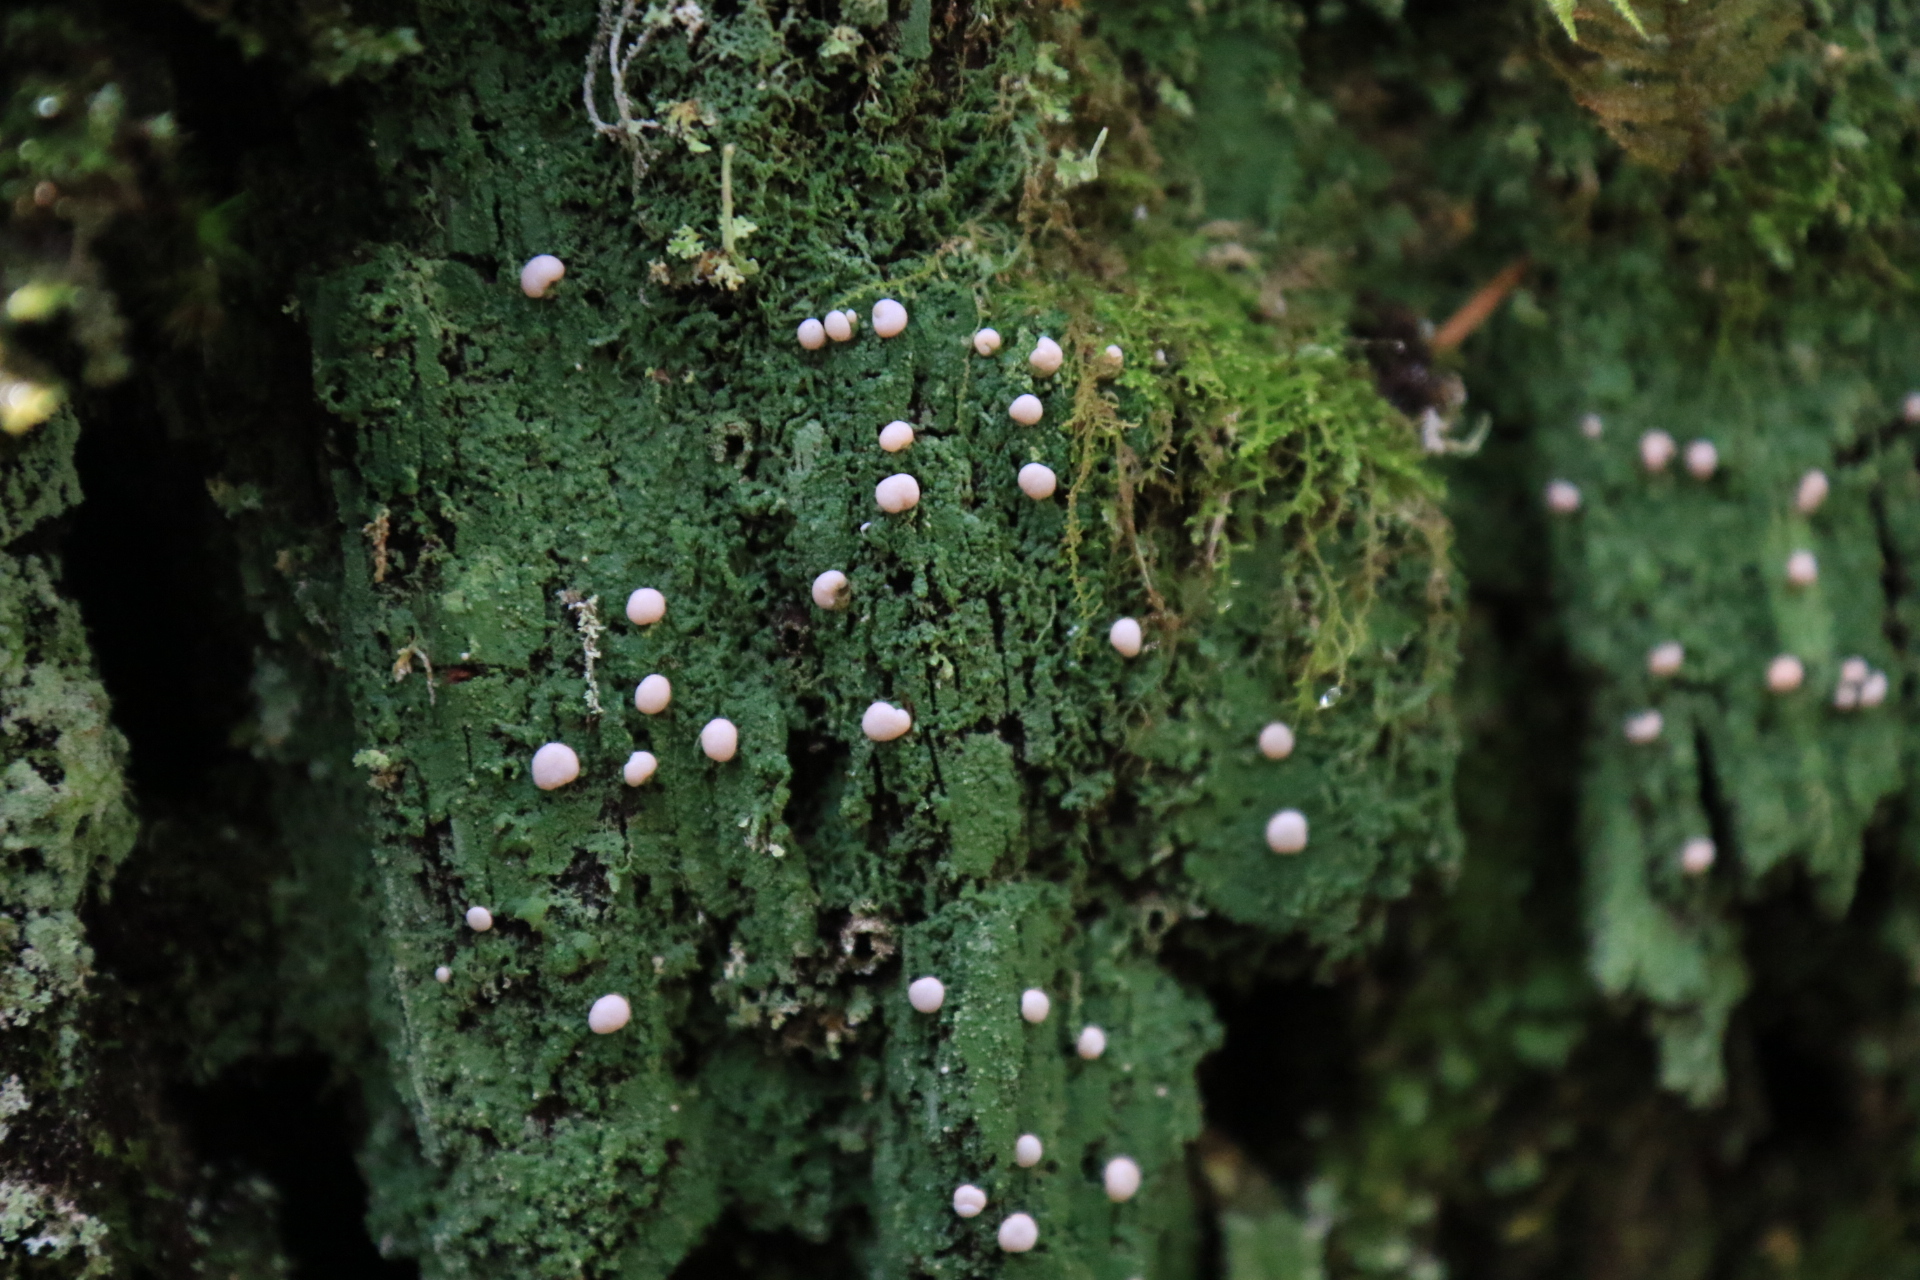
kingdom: Fungi
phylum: Ascomycota
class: Lecanoromycetes
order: Pertusariales
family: Icmadophilaceae
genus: Icmadophila
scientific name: Icmadophila ericetorum
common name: Candy lichen
